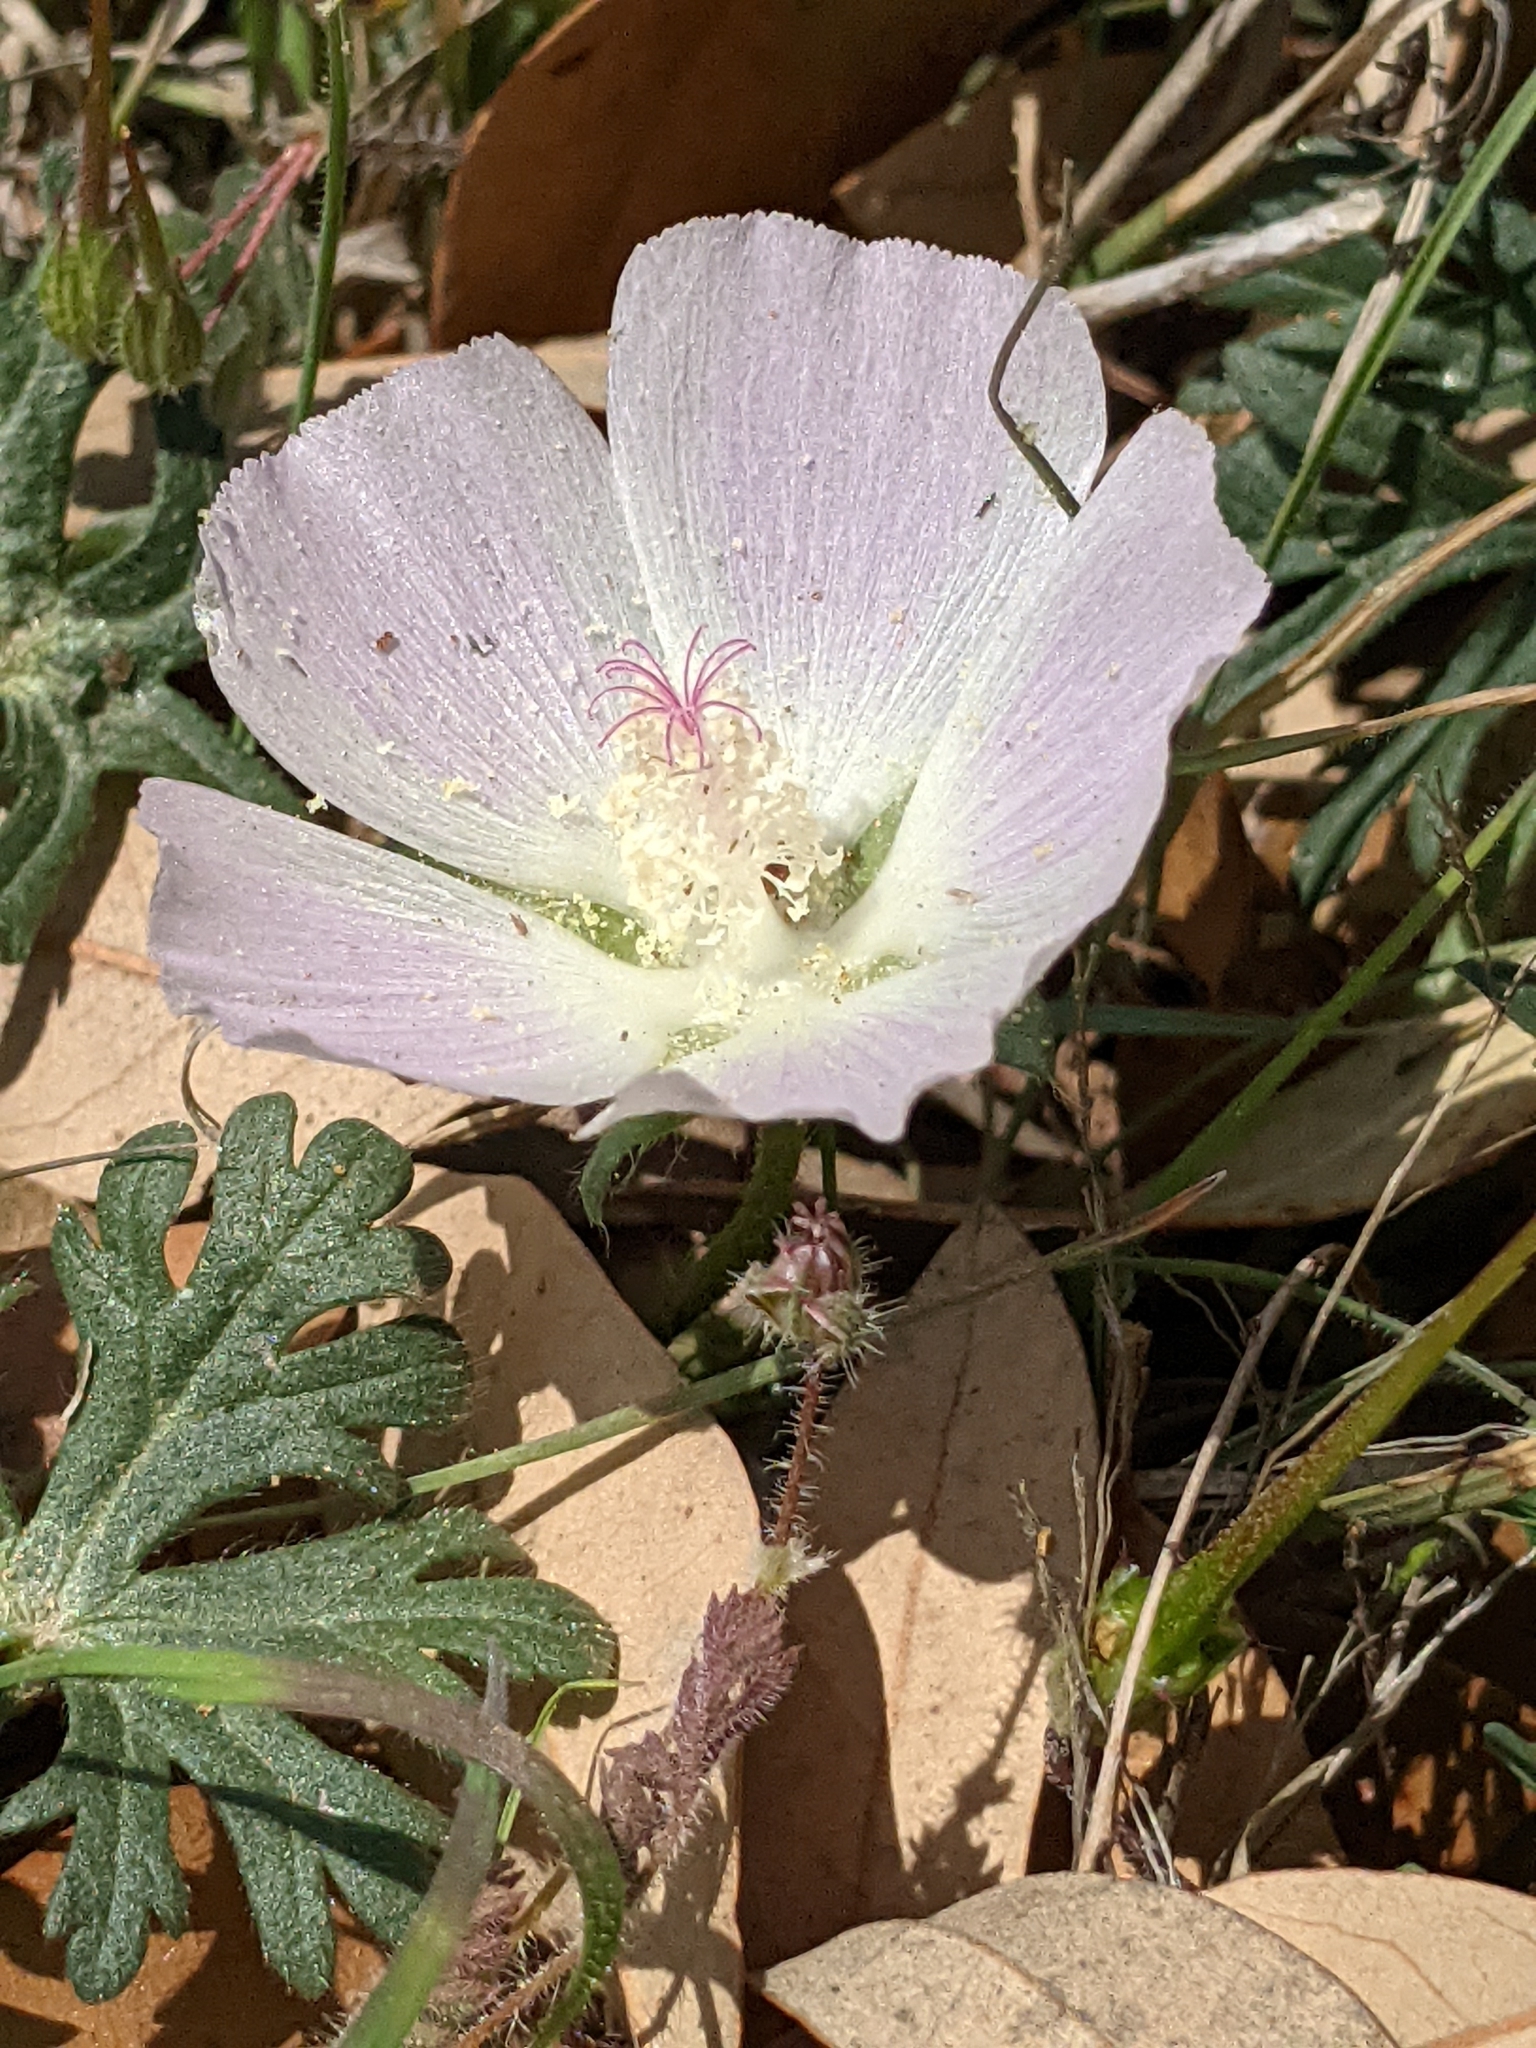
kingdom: Plantae
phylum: Tracheophyta
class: Magnoliopsida
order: Malvales
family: Malvaceae
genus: Callirhoe
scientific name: Callirhoe involucrata
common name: Purple poppy-mallow
